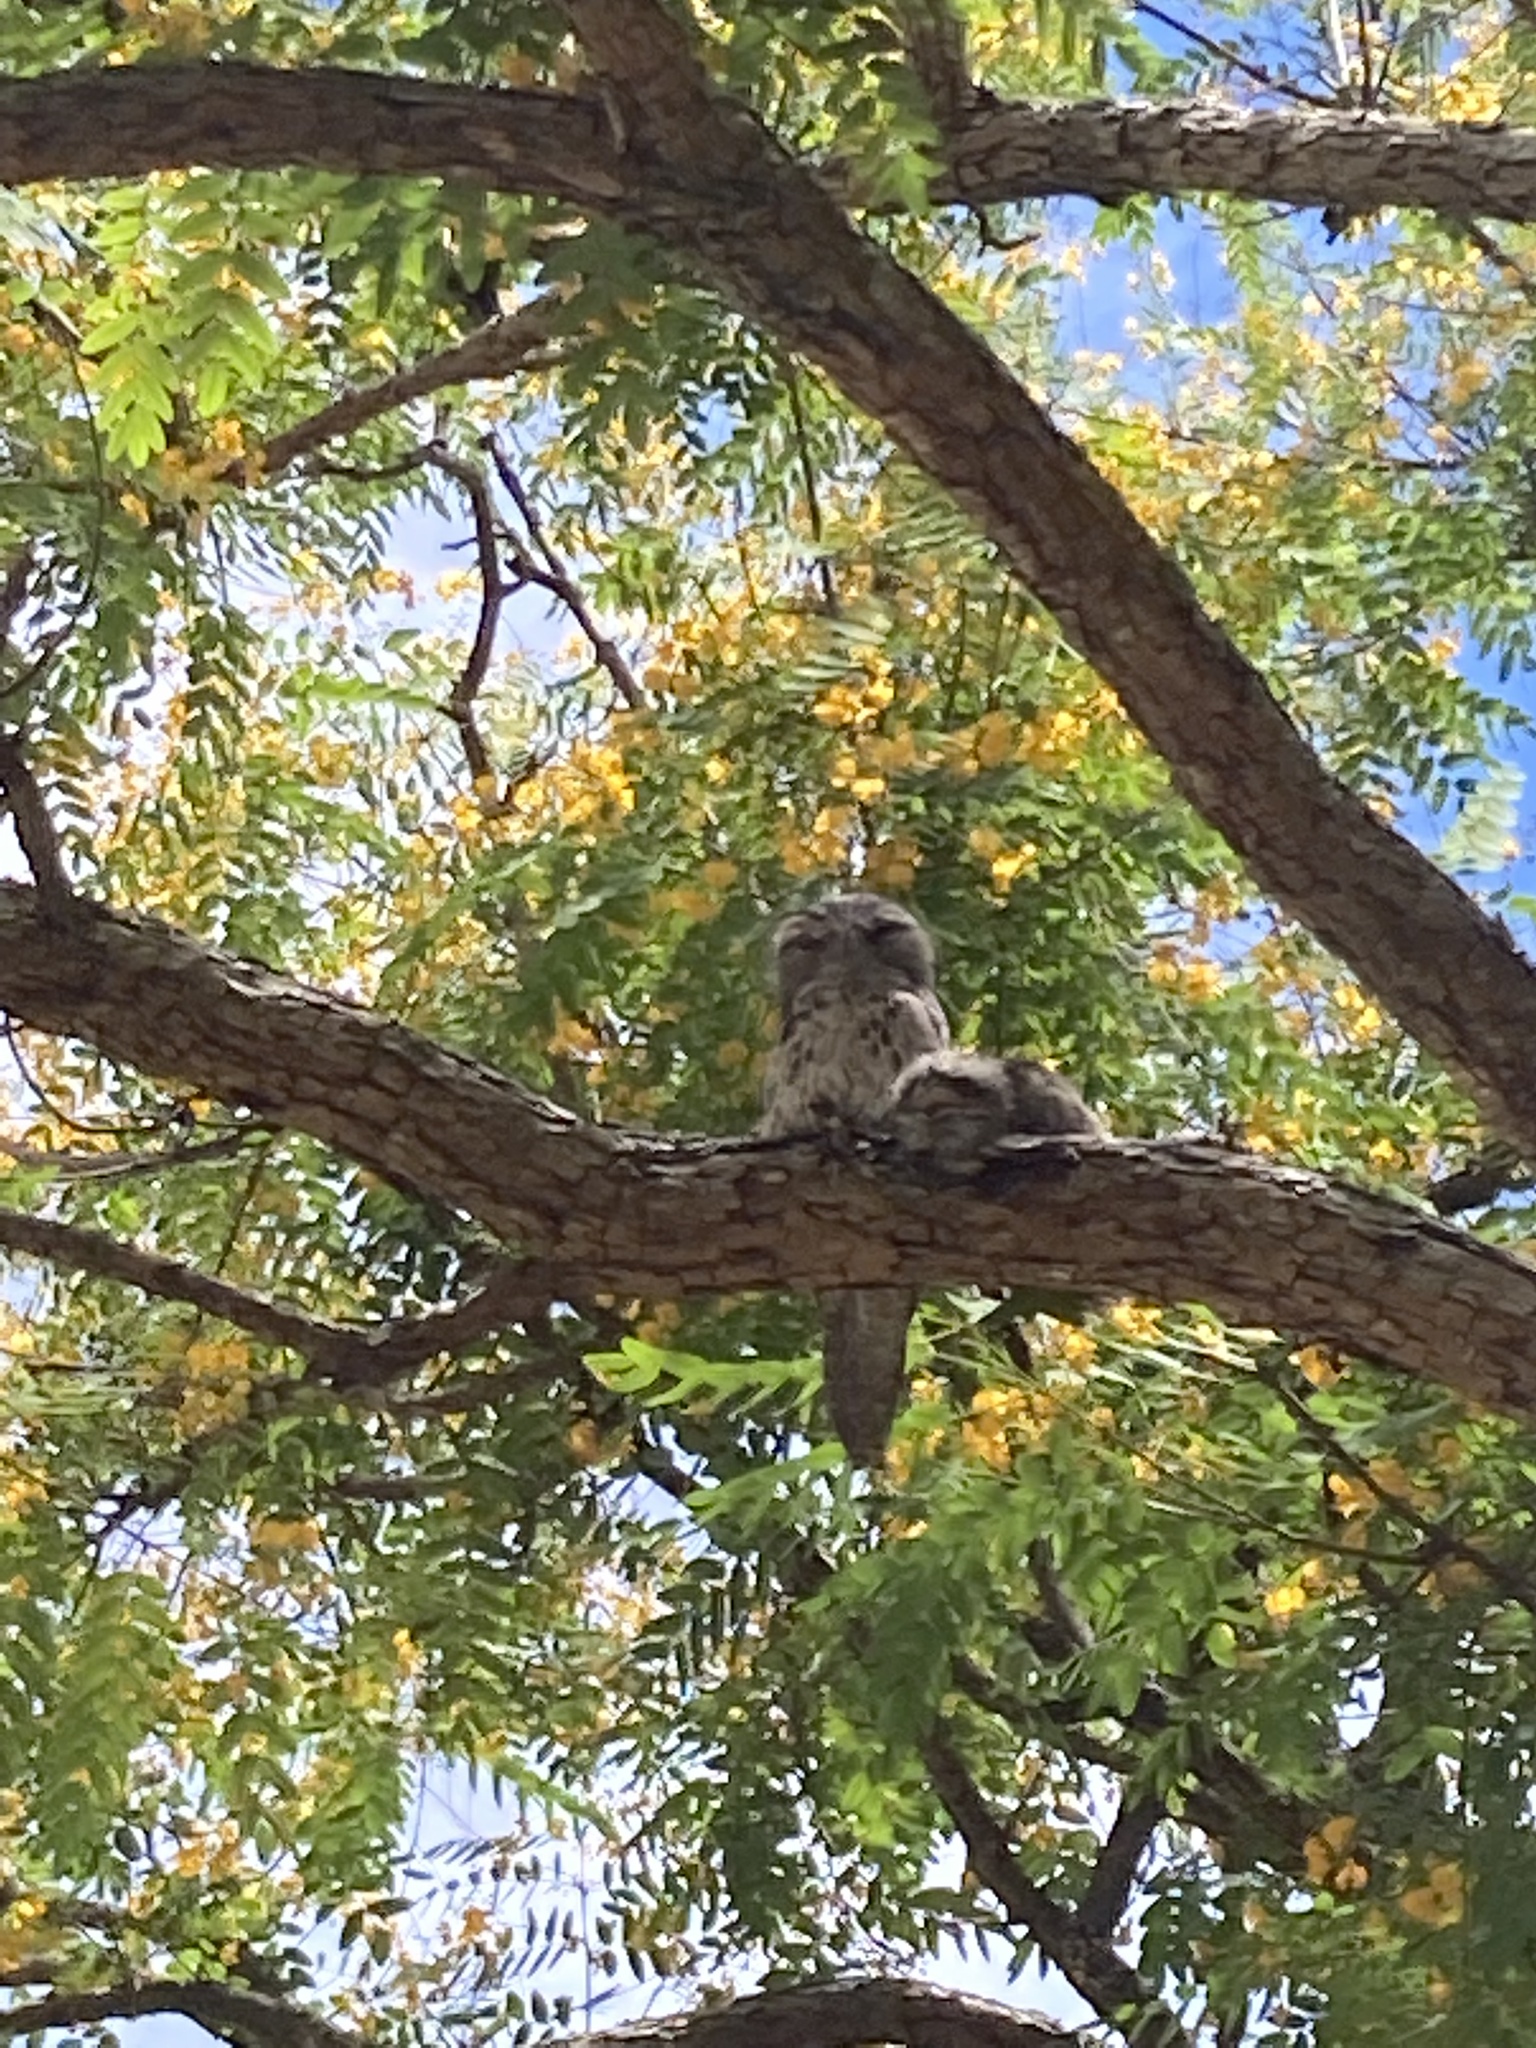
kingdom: Animalia
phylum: Chordata
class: Aves
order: Caprimulgiformes
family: Podargidae
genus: Podargus
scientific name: Podargus strigoides
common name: Tawny frogmouth
